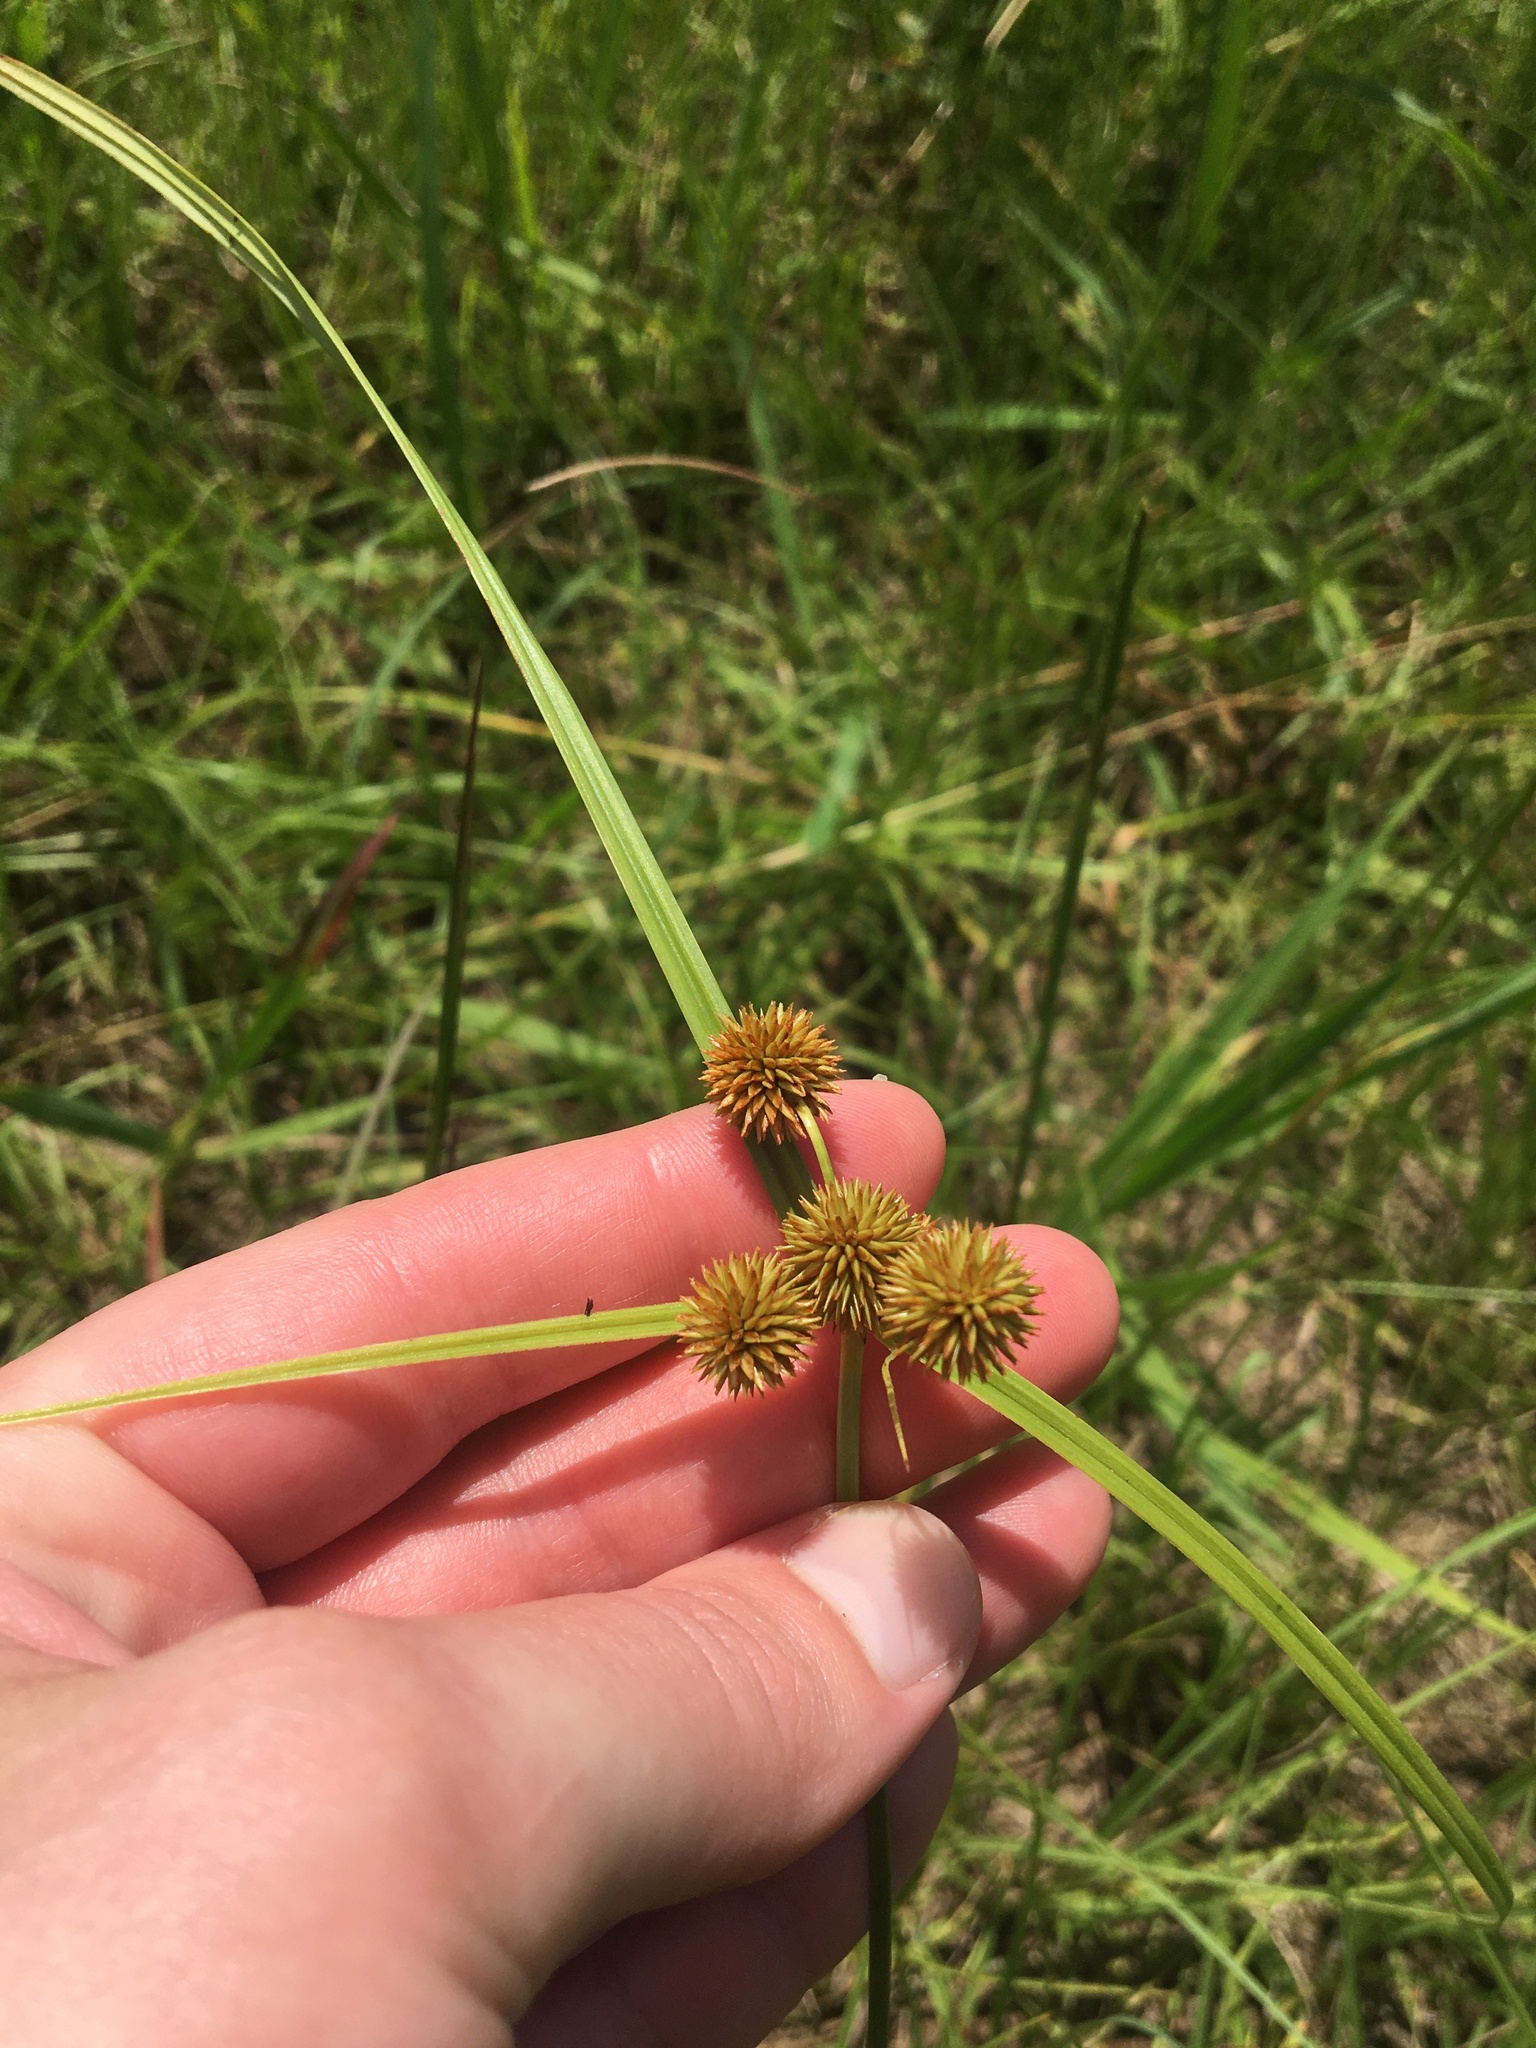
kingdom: Plantae
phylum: Tracheophyta
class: Liliopsida
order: Poales
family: Cyperaceae
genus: Cyperus
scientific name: Cyperus echinatus
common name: Teasel sedge
